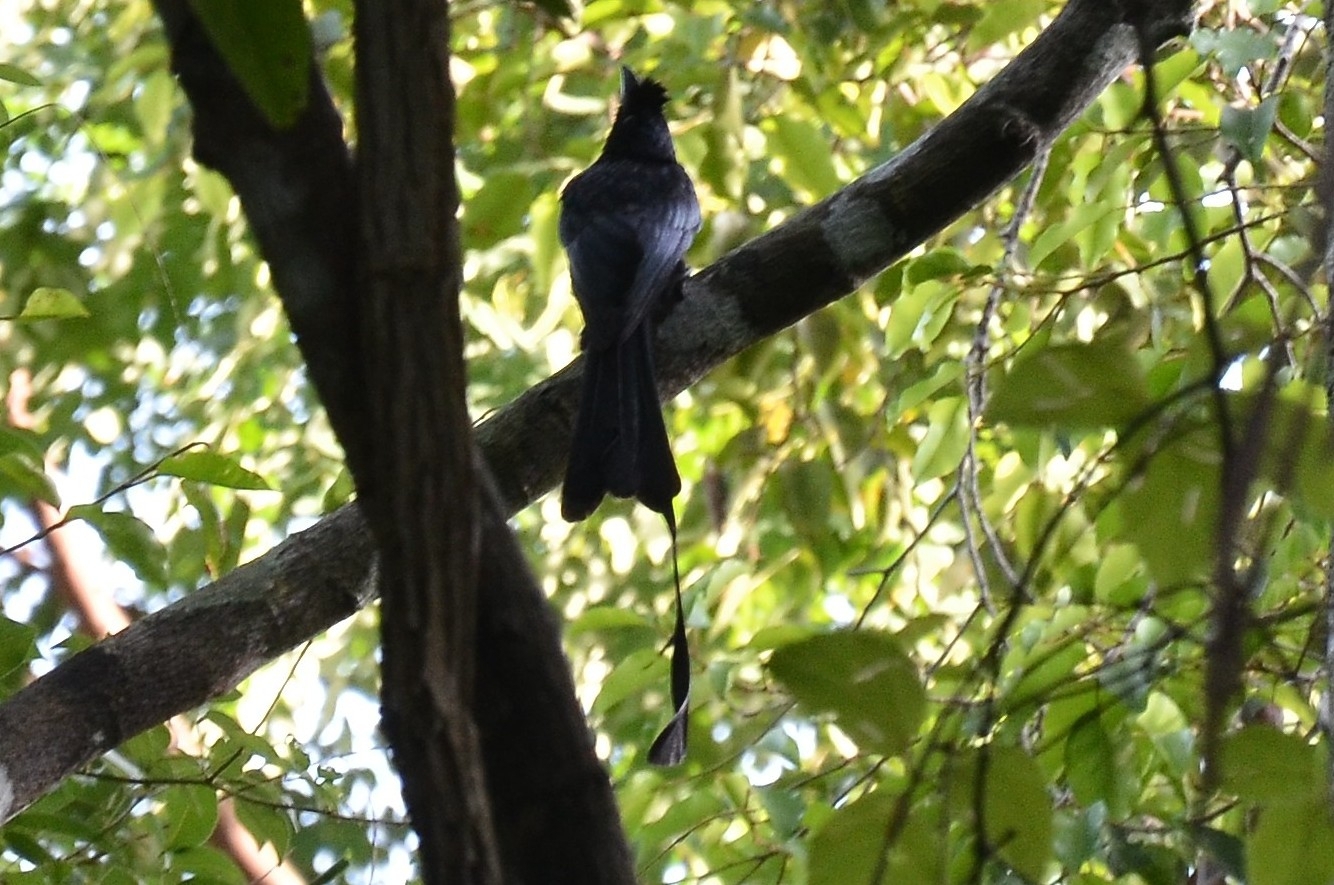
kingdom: Animalia
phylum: Chordata
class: Aves
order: Passeriformes
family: Dicruridae
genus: Dicrurus
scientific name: Dicrurus paradiseus
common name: Greater racket-tailed drongo
